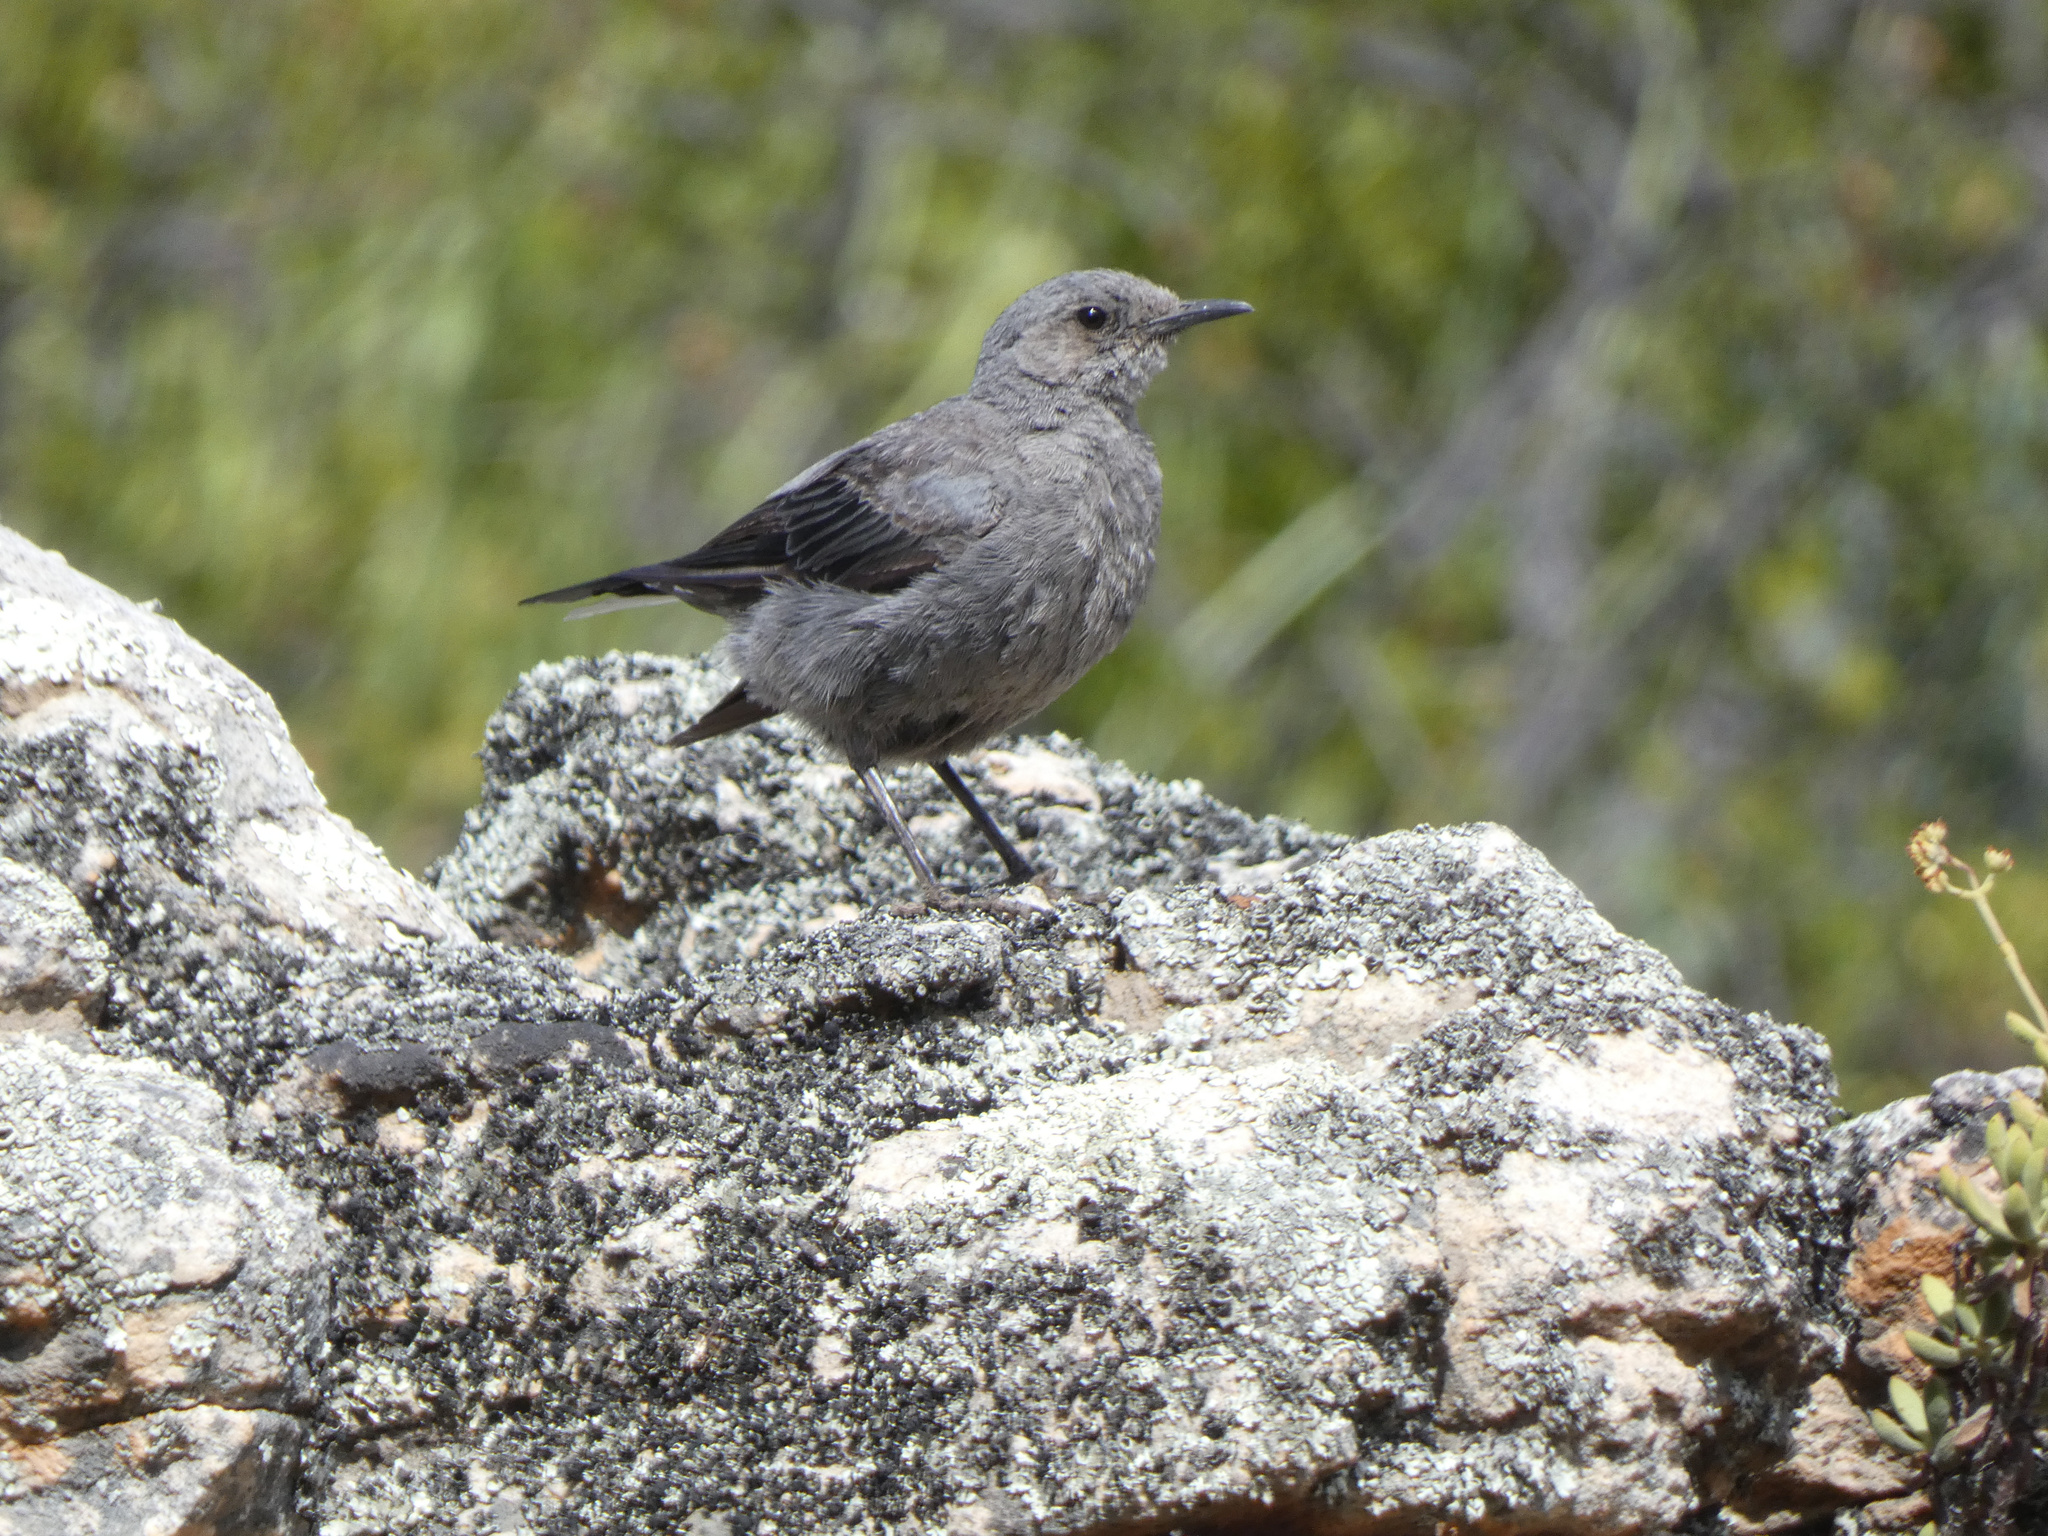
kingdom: Animalia
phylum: Chordata
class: Aves
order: Passeriformes
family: Muscicapidae
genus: Oenanthe
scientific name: Oenanthe monticola
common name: Mountain wheatear
